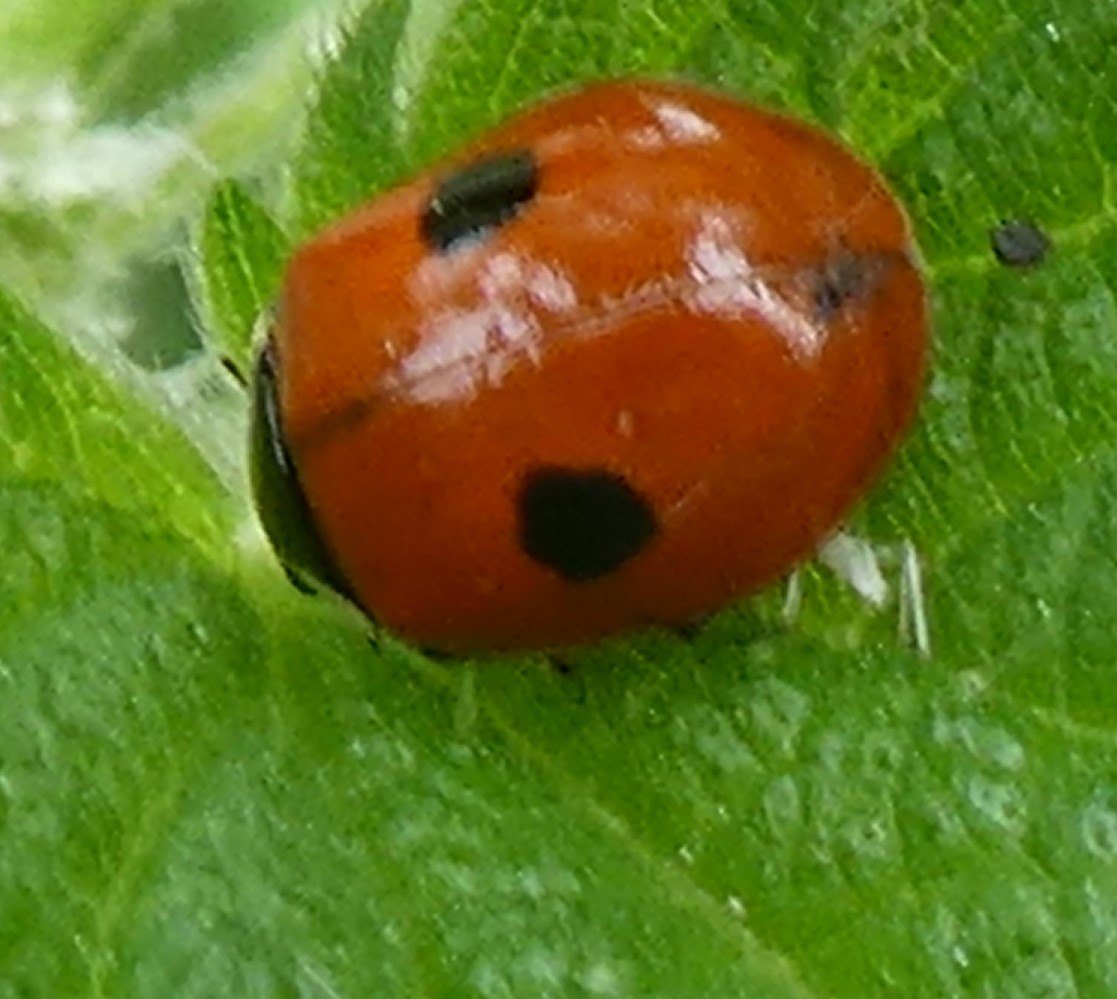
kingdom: Animalia
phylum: Arthropoda
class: Insecta
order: Coleoptera
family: Coccinellidae
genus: Adalia
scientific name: Adalia bipunctata
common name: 2-spot ladybird
